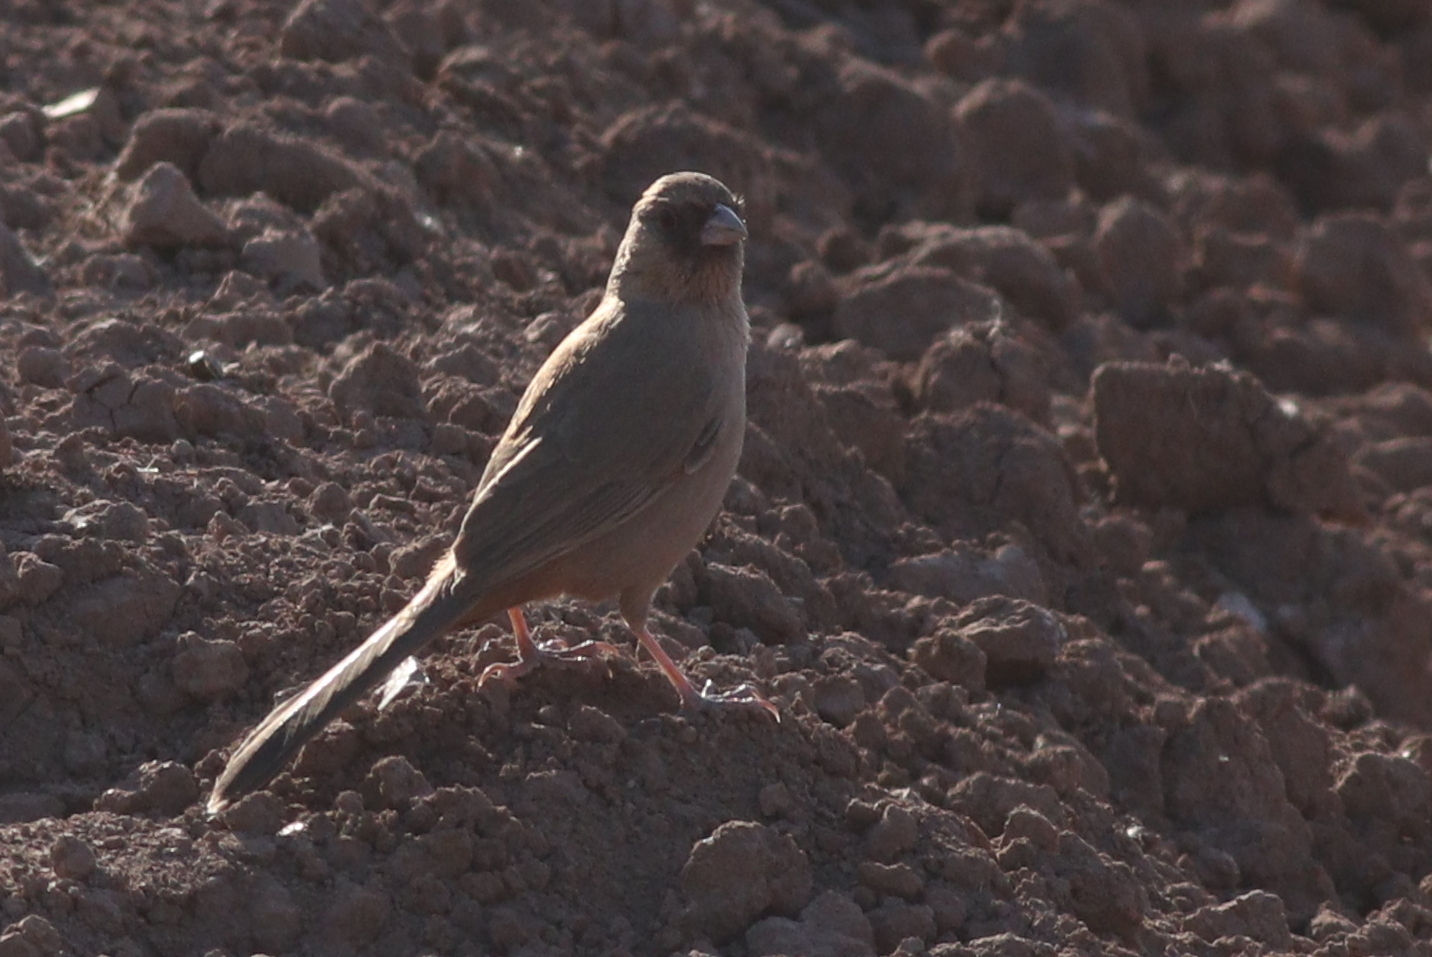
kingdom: Animalia
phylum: Chordata
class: Aves
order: Passeriformes
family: Passerellidae
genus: Melozone
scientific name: Melozone aberti
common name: Abert's towhee
